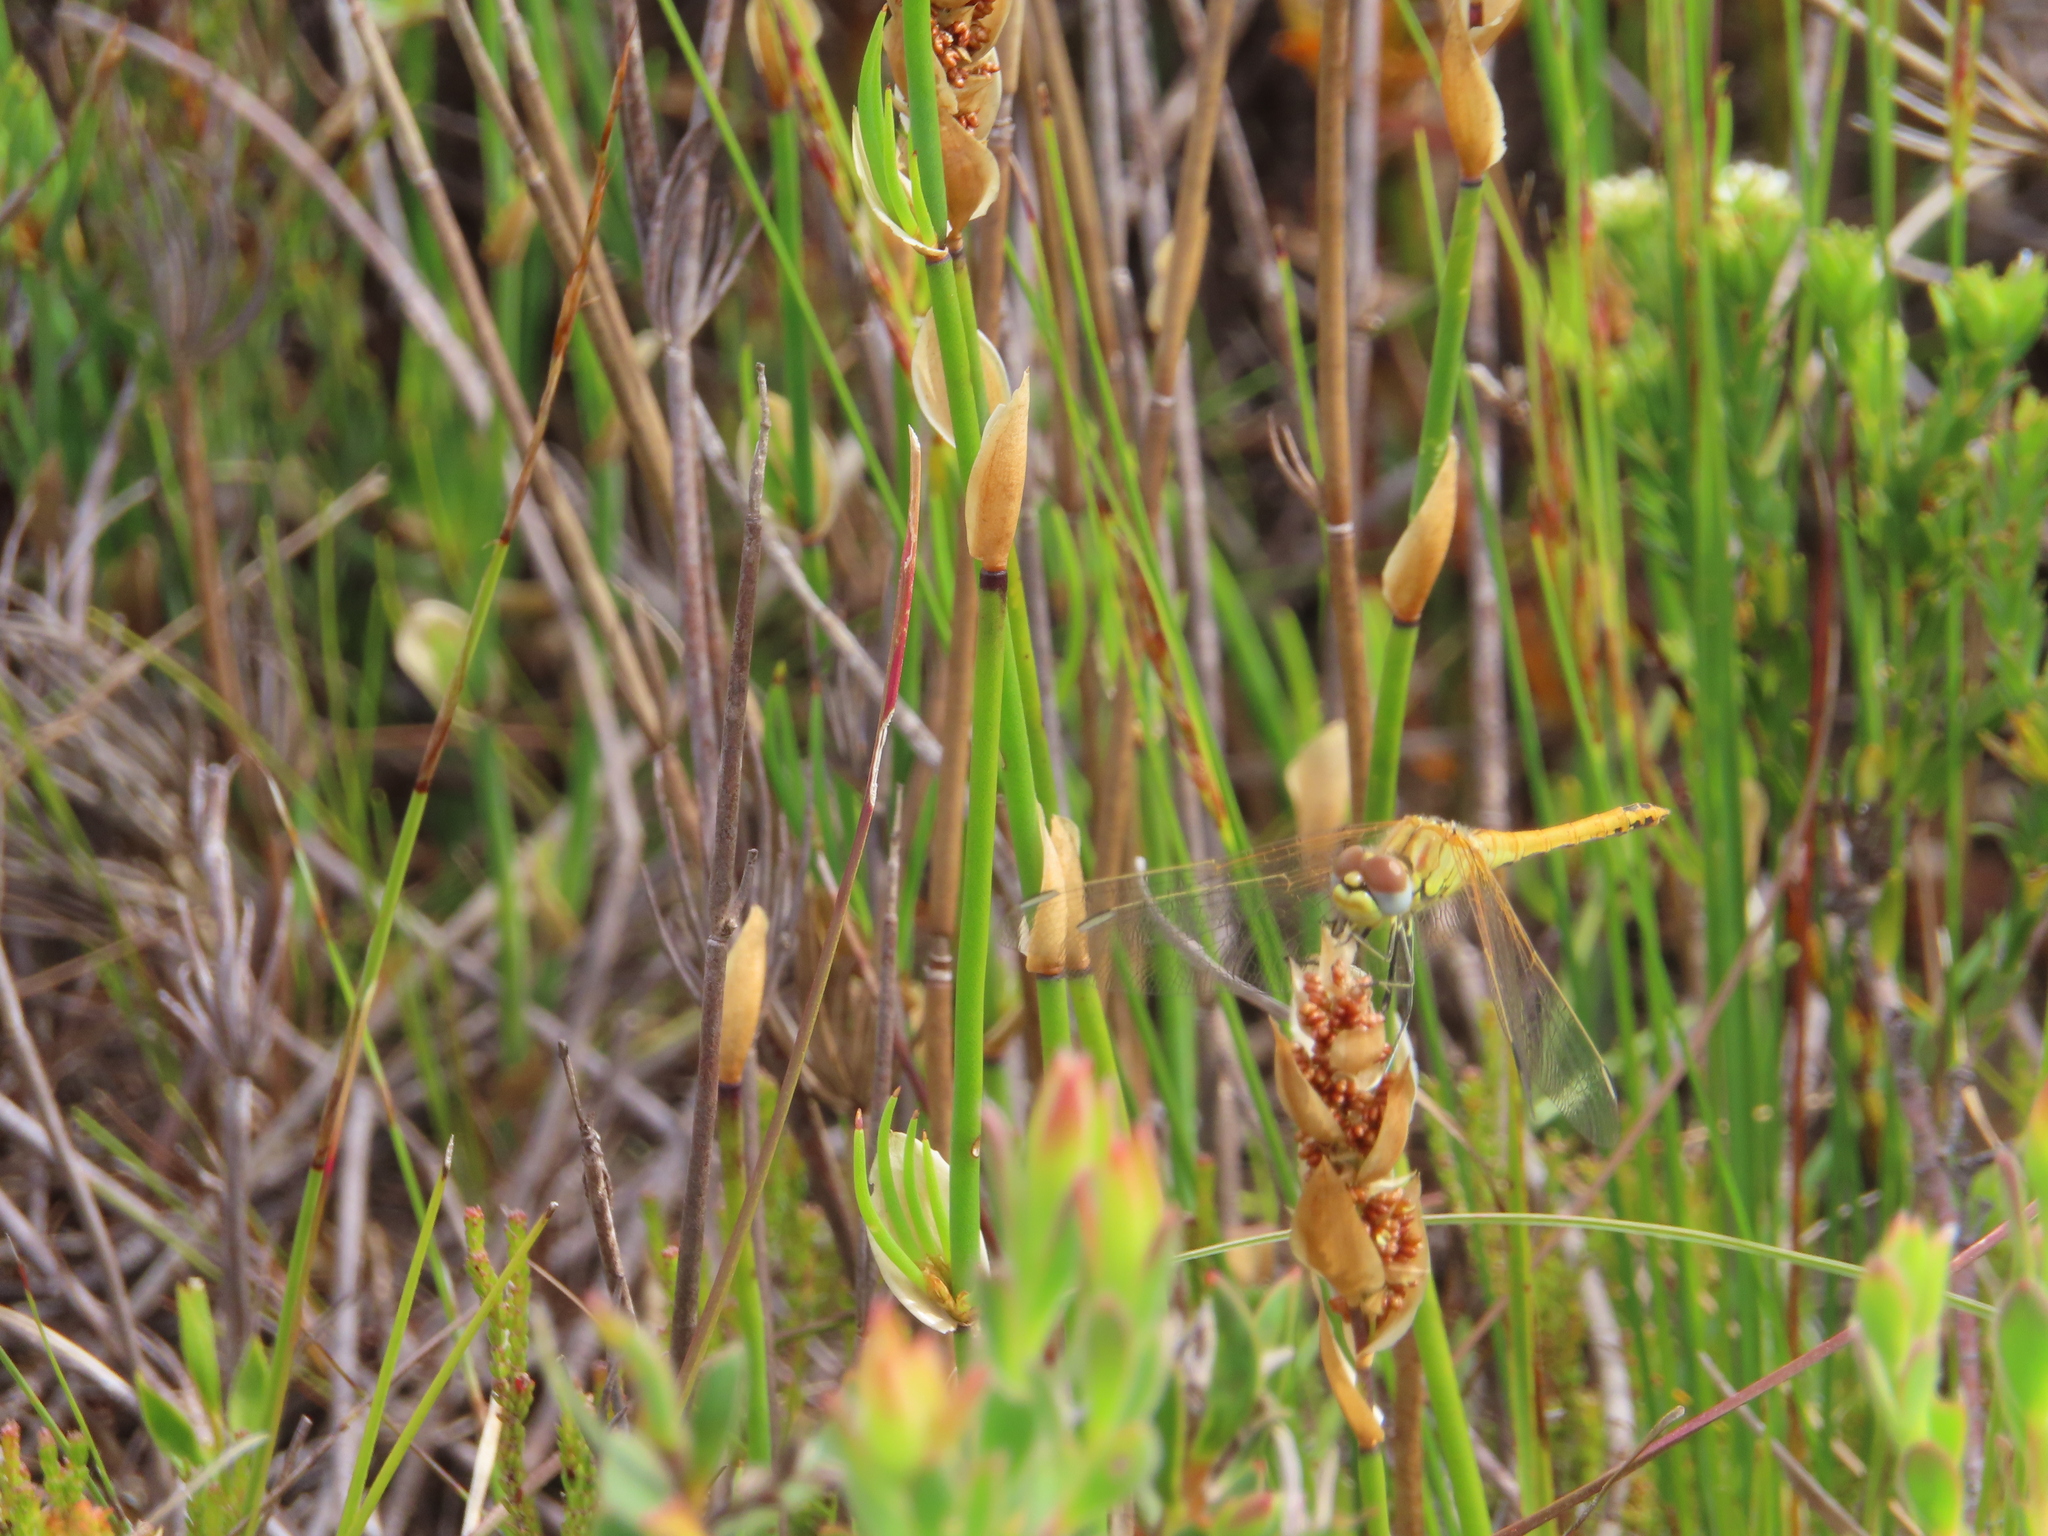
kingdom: Animalia
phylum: Arthropoda
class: Insecta
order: Odonata
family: Libellulidae
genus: Sympetrum
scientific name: Sympetrum fonscolombii
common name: Red-veined darter
